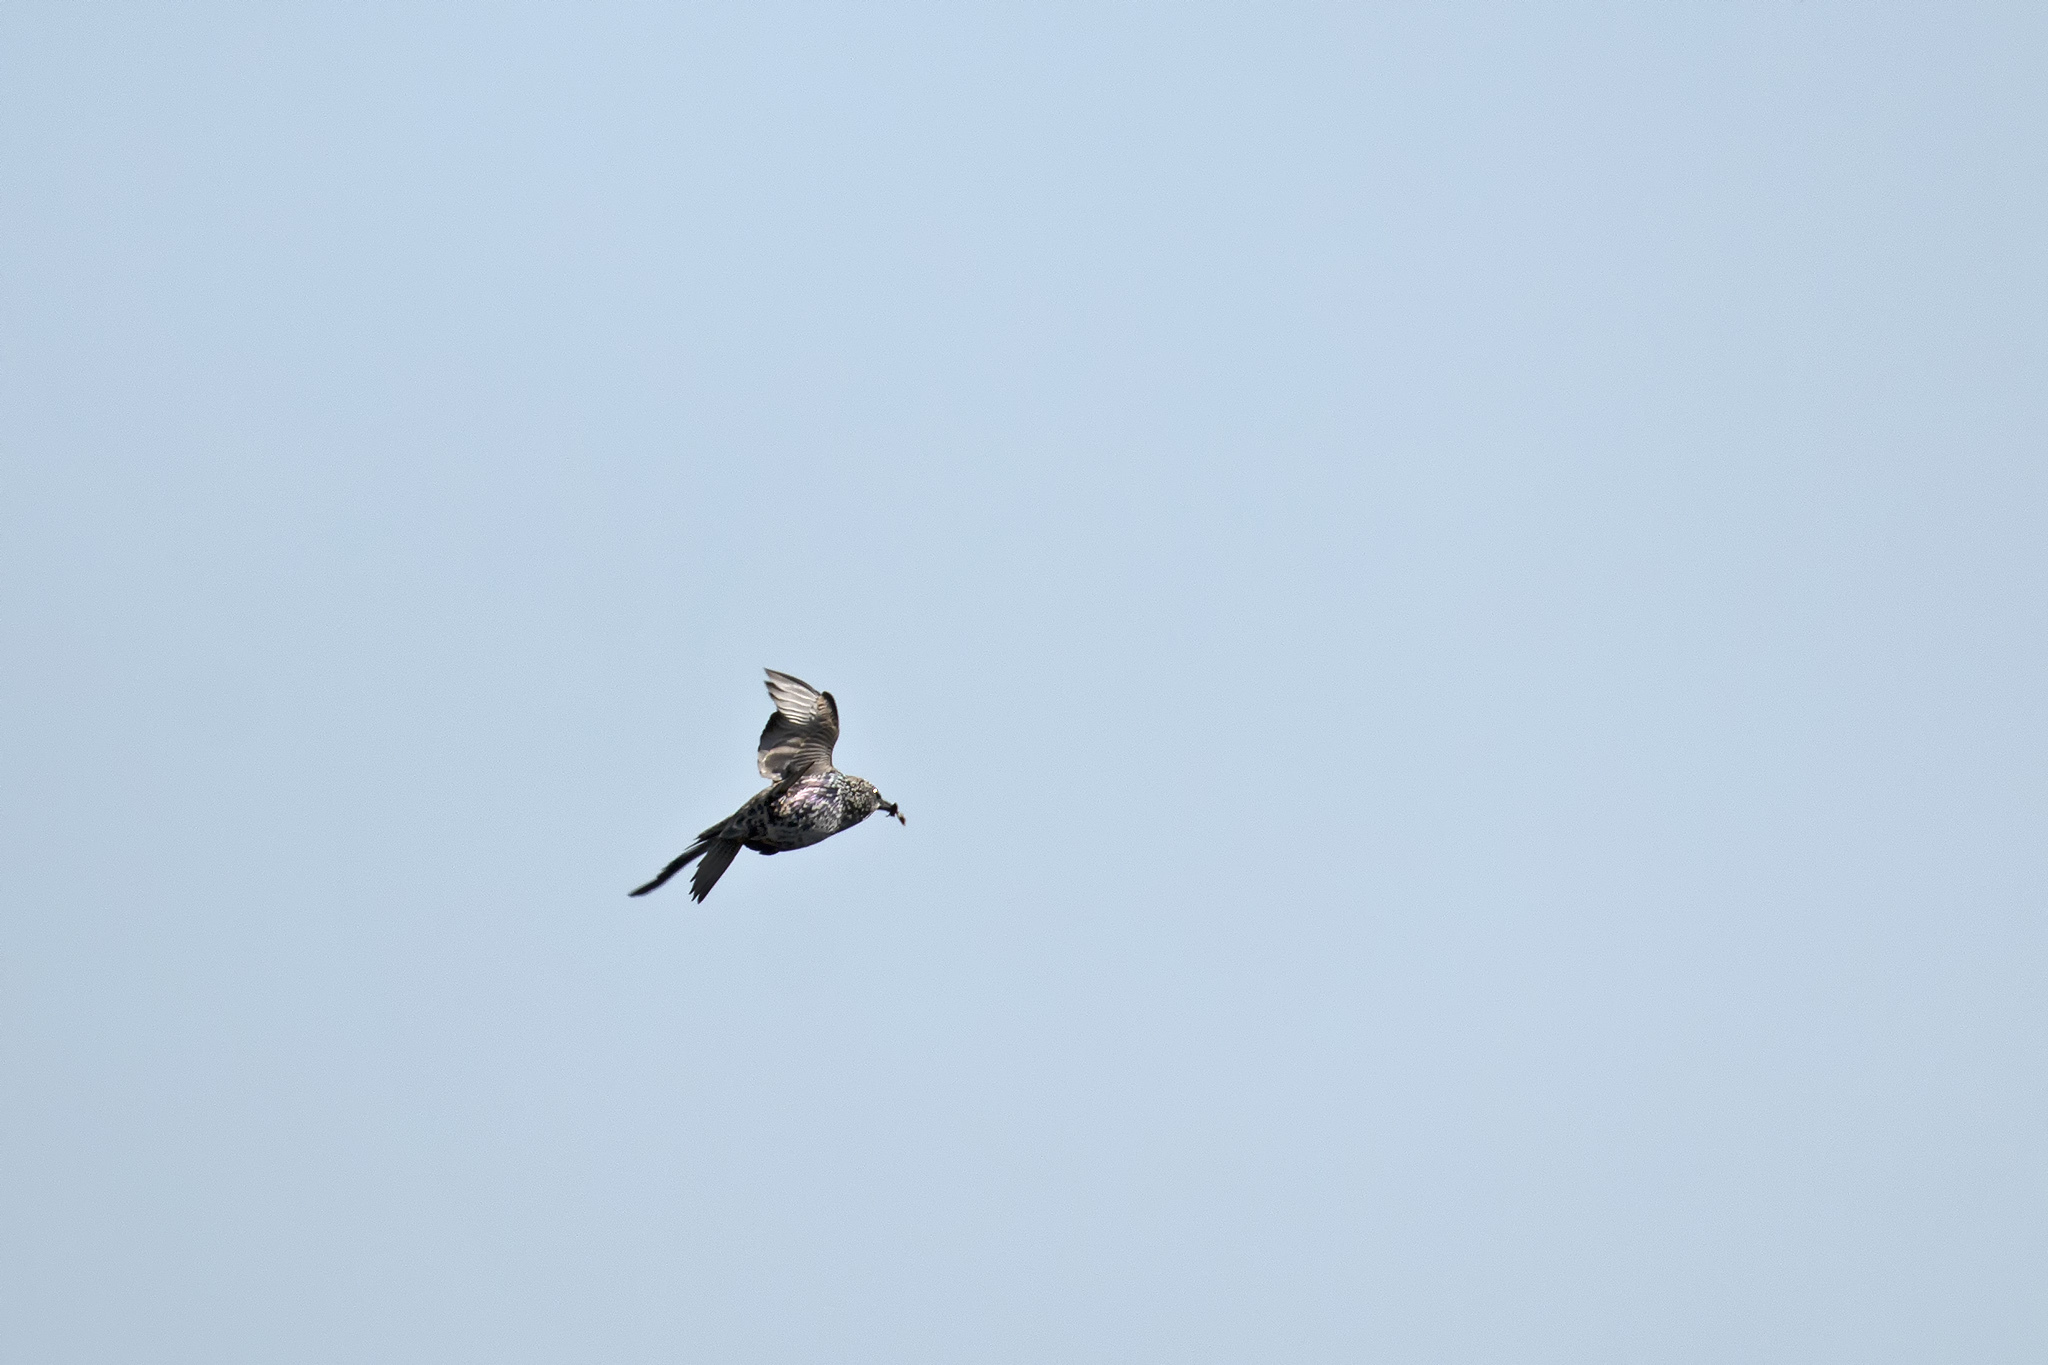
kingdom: Animalia
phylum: Chordata
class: Aves
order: Passeriformes
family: Sturnidae
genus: Sturnus
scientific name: Sturnus vulgaris
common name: Common starling
